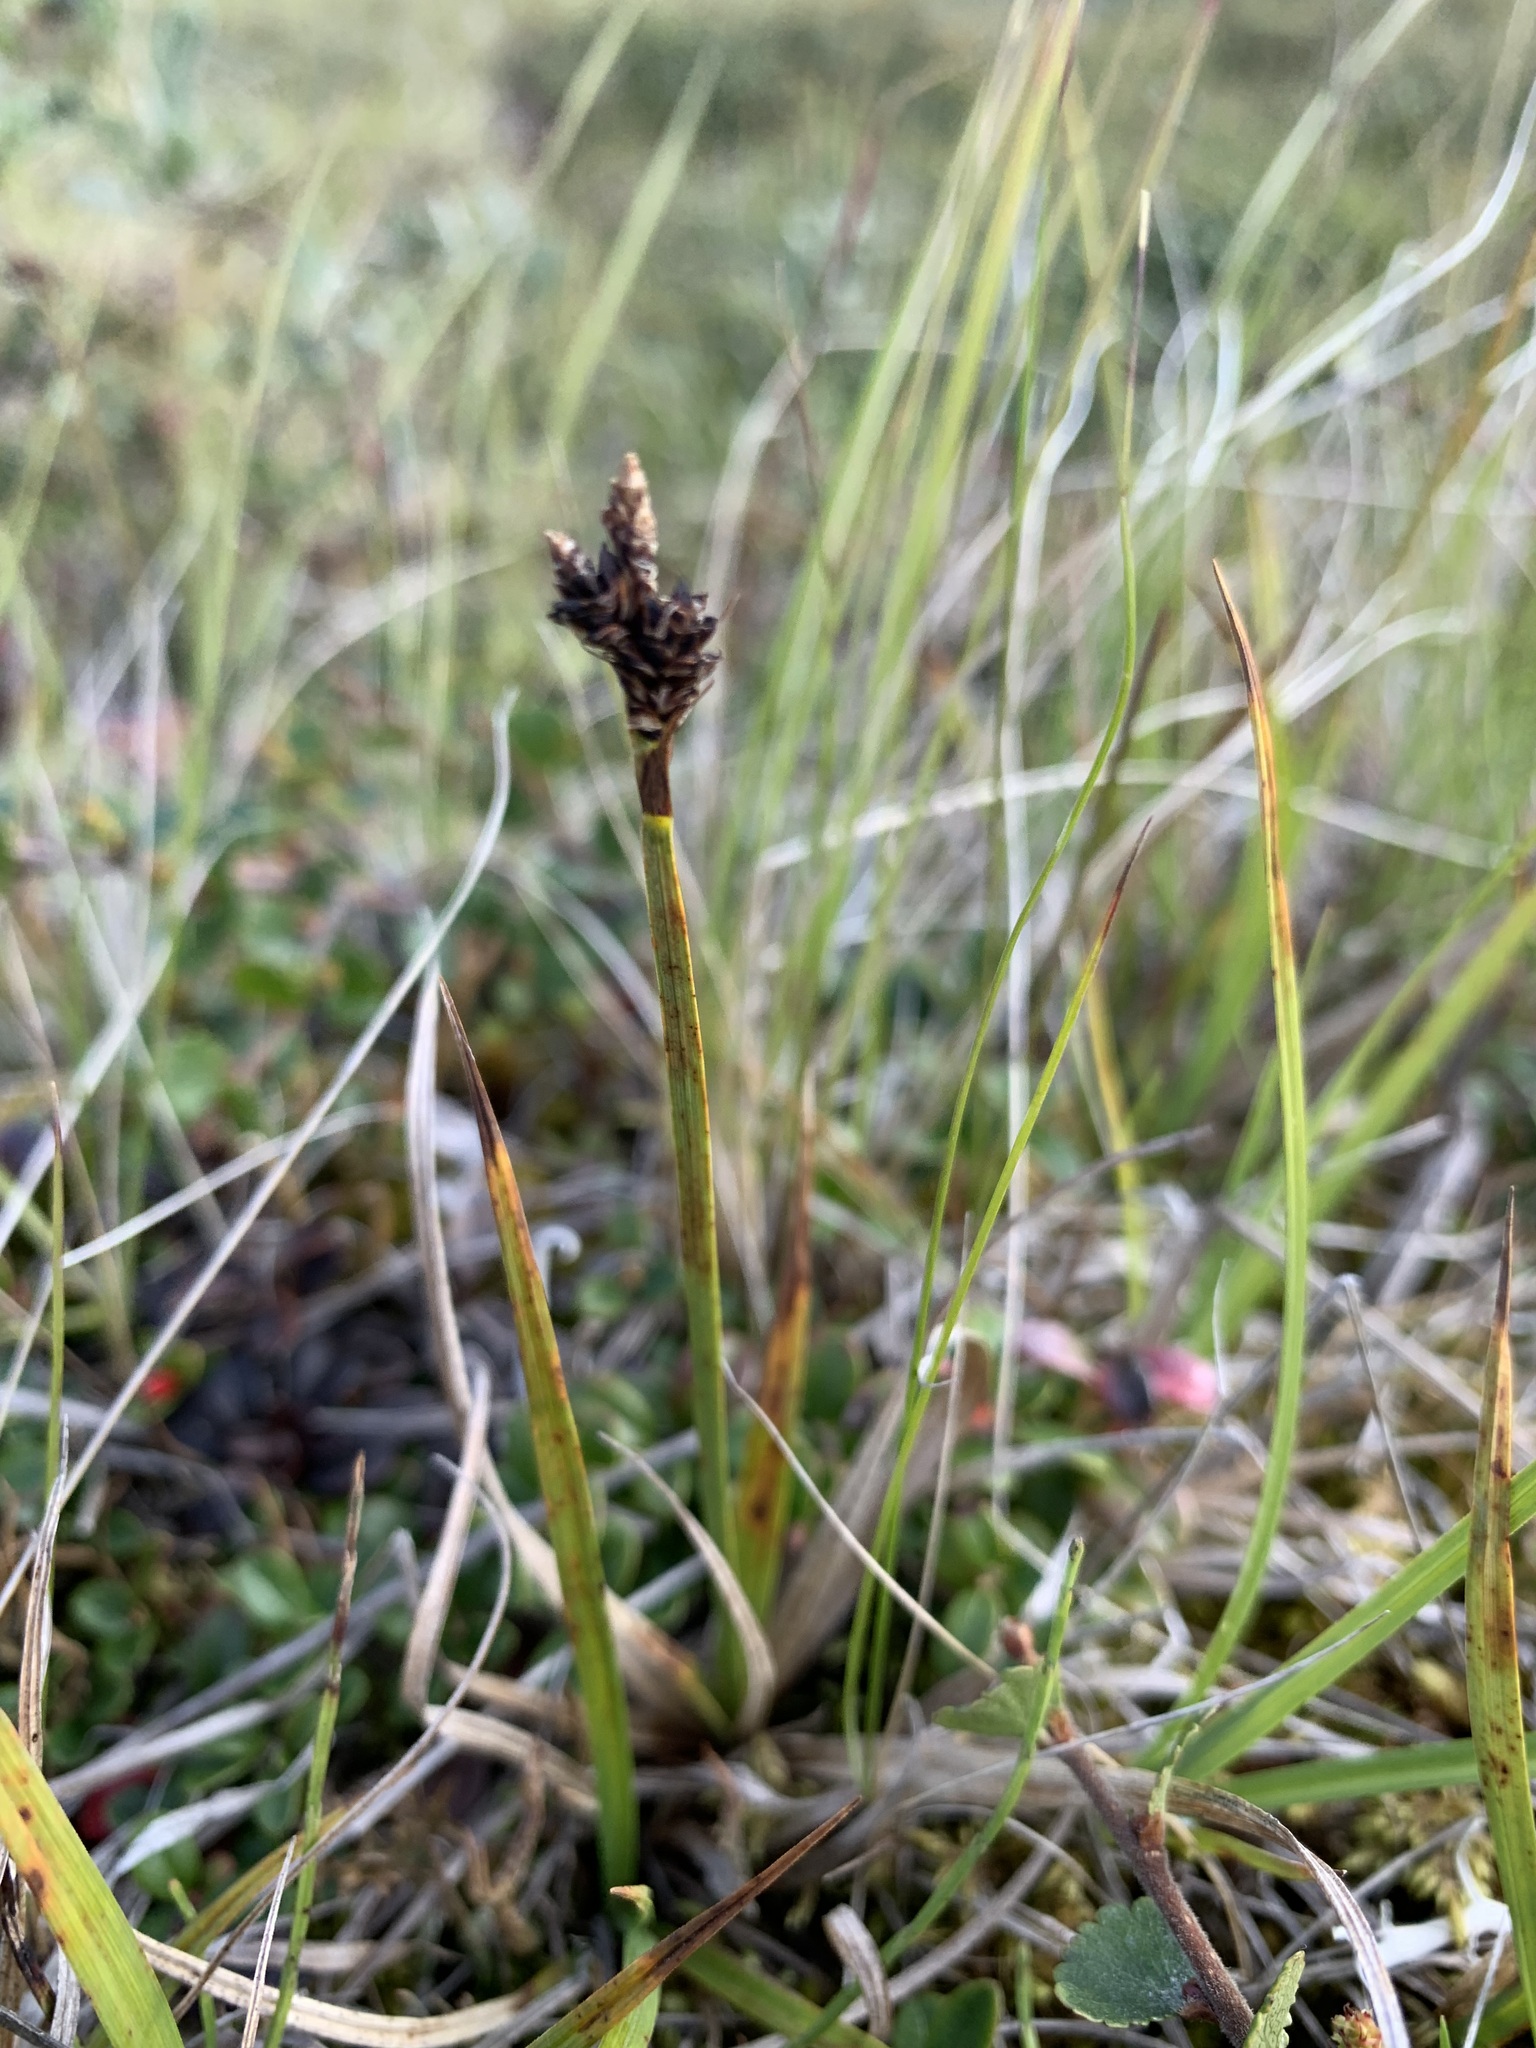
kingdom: Plantae
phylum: Tracheophyta
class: Liliopsida
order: Poales
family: Cyperaceae
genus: Carex
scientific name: Carex bigelowii
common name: Stiff sedge
